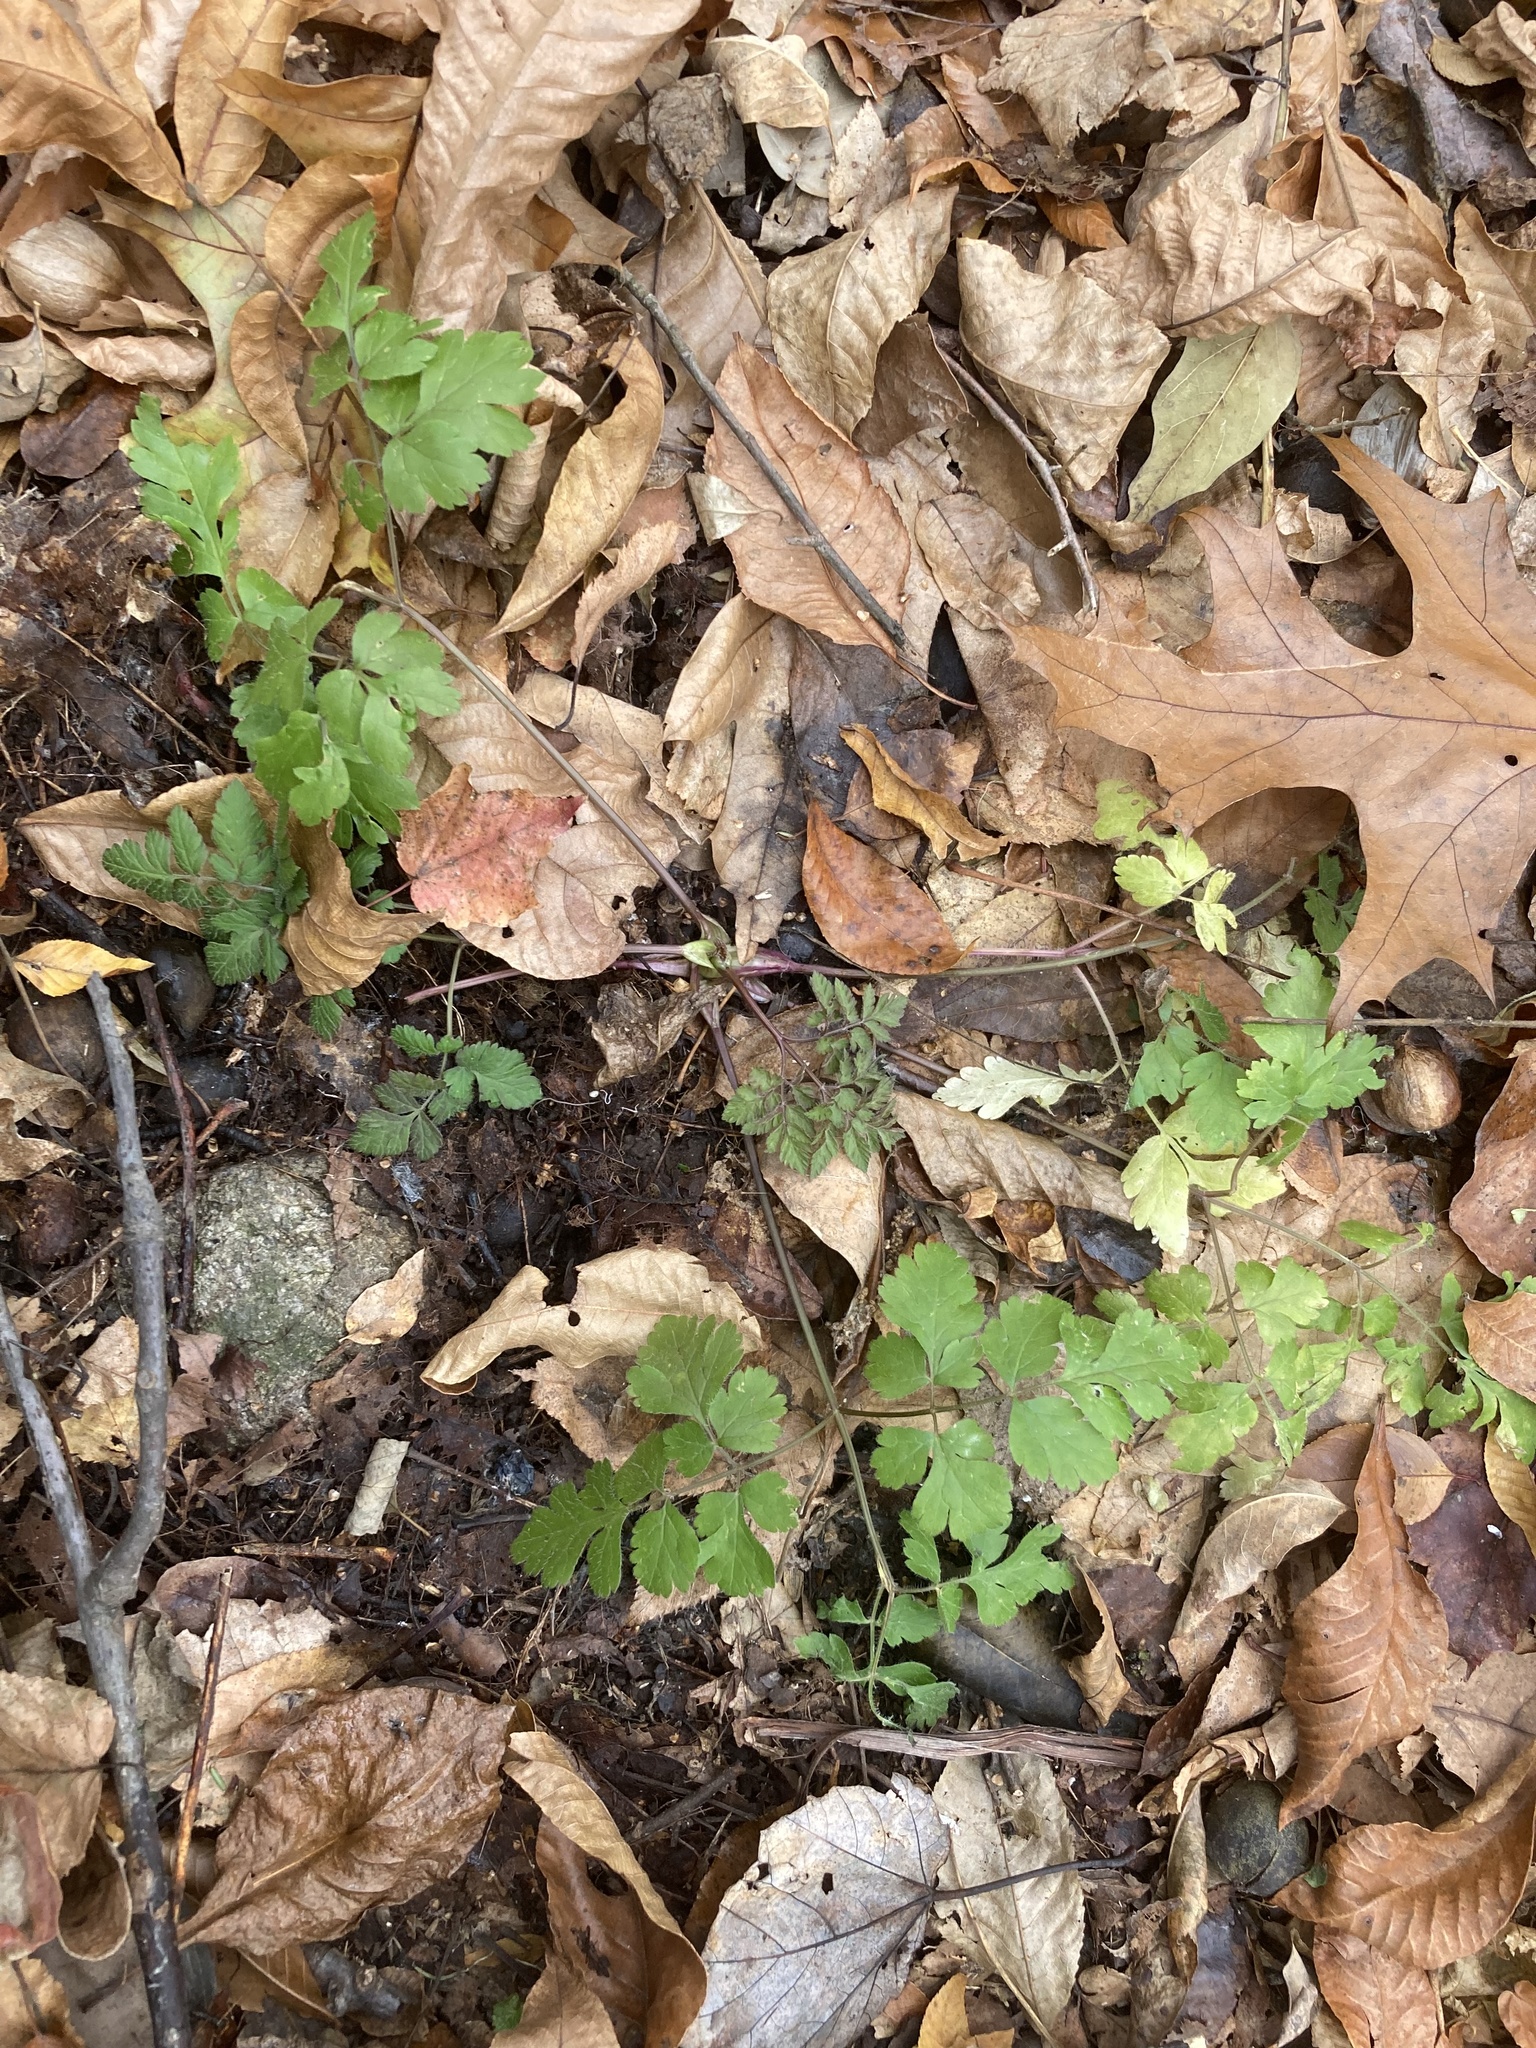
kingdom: Plantae
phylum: Tracheophyta
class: Magnoliopsida
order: Apiales
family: Apiaceae
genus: Osmorhiza
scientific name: Osmorhiza claytonii
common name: Hairy sweet cicely
